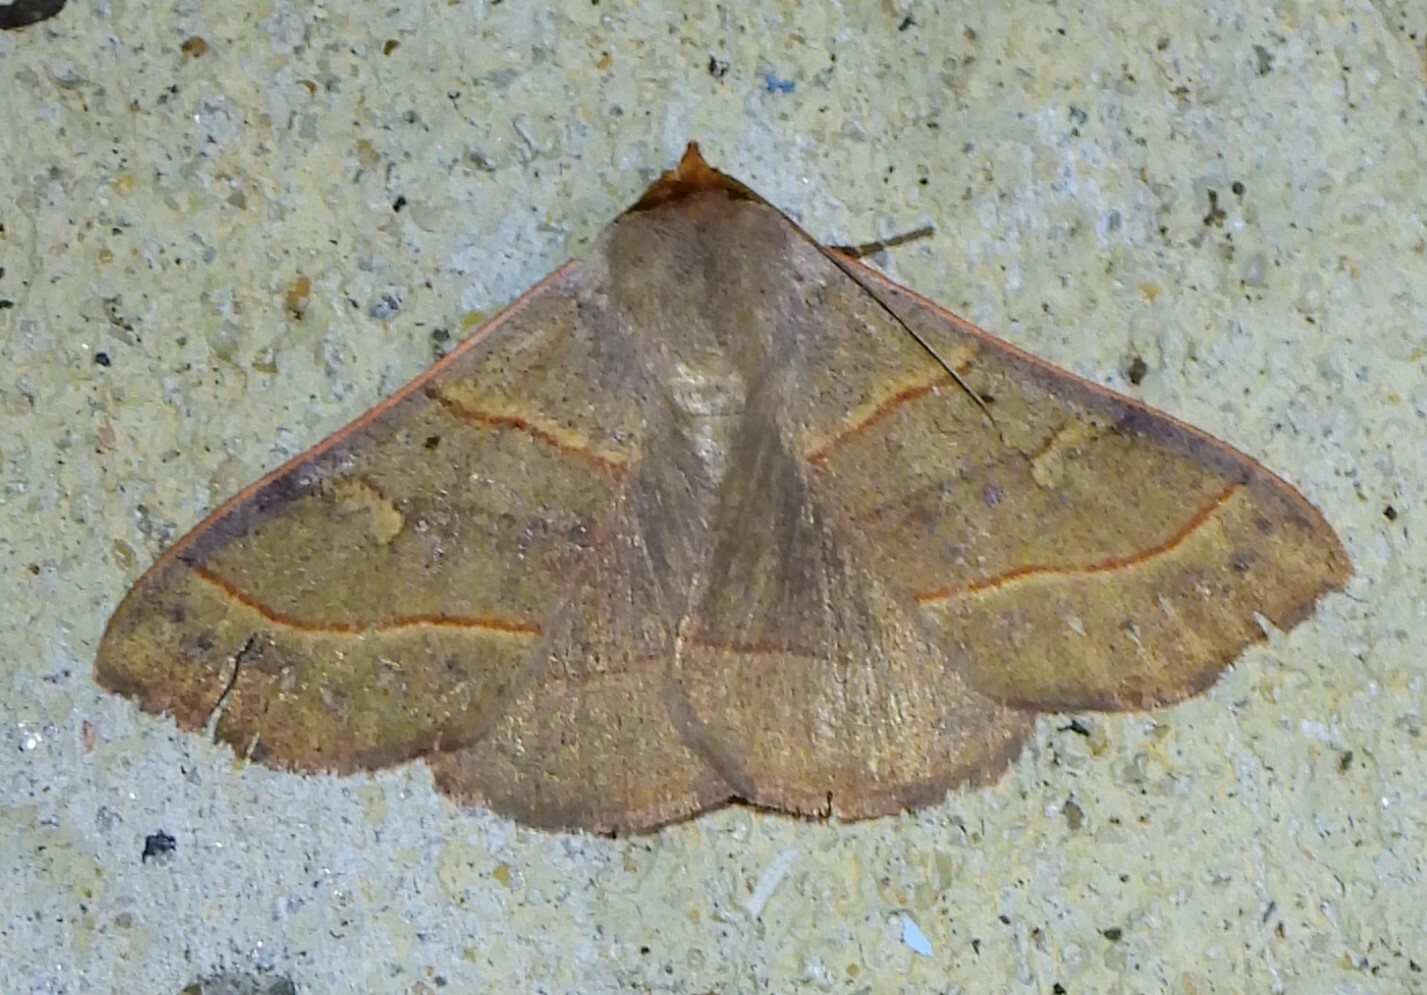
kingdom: Animalia
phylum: Arthropoda
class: Insecta
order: Lepidoptera
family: Erebidae
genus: Panopoda
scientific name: Panopoda rufimargo
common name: Red-lined panopoda moth
